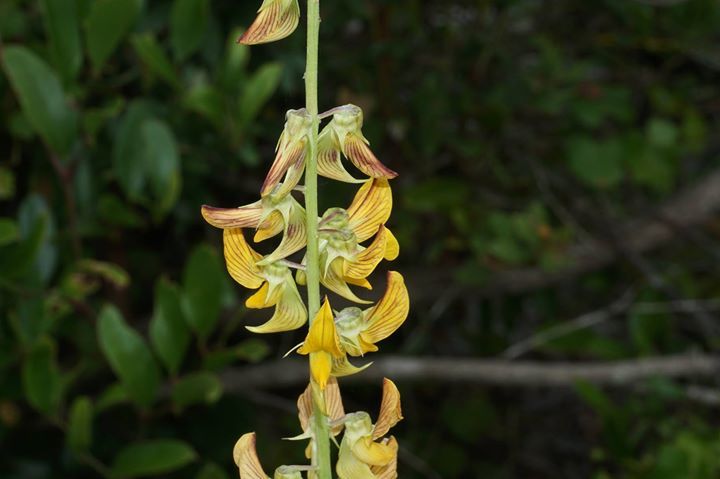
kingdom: Plantae
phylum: Tracheophyta
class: Magnoliopsida
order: Fabales
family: Fabaceae
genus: Crotalaria
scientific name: Crotalaria pallida
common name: Smooth rattlebox
